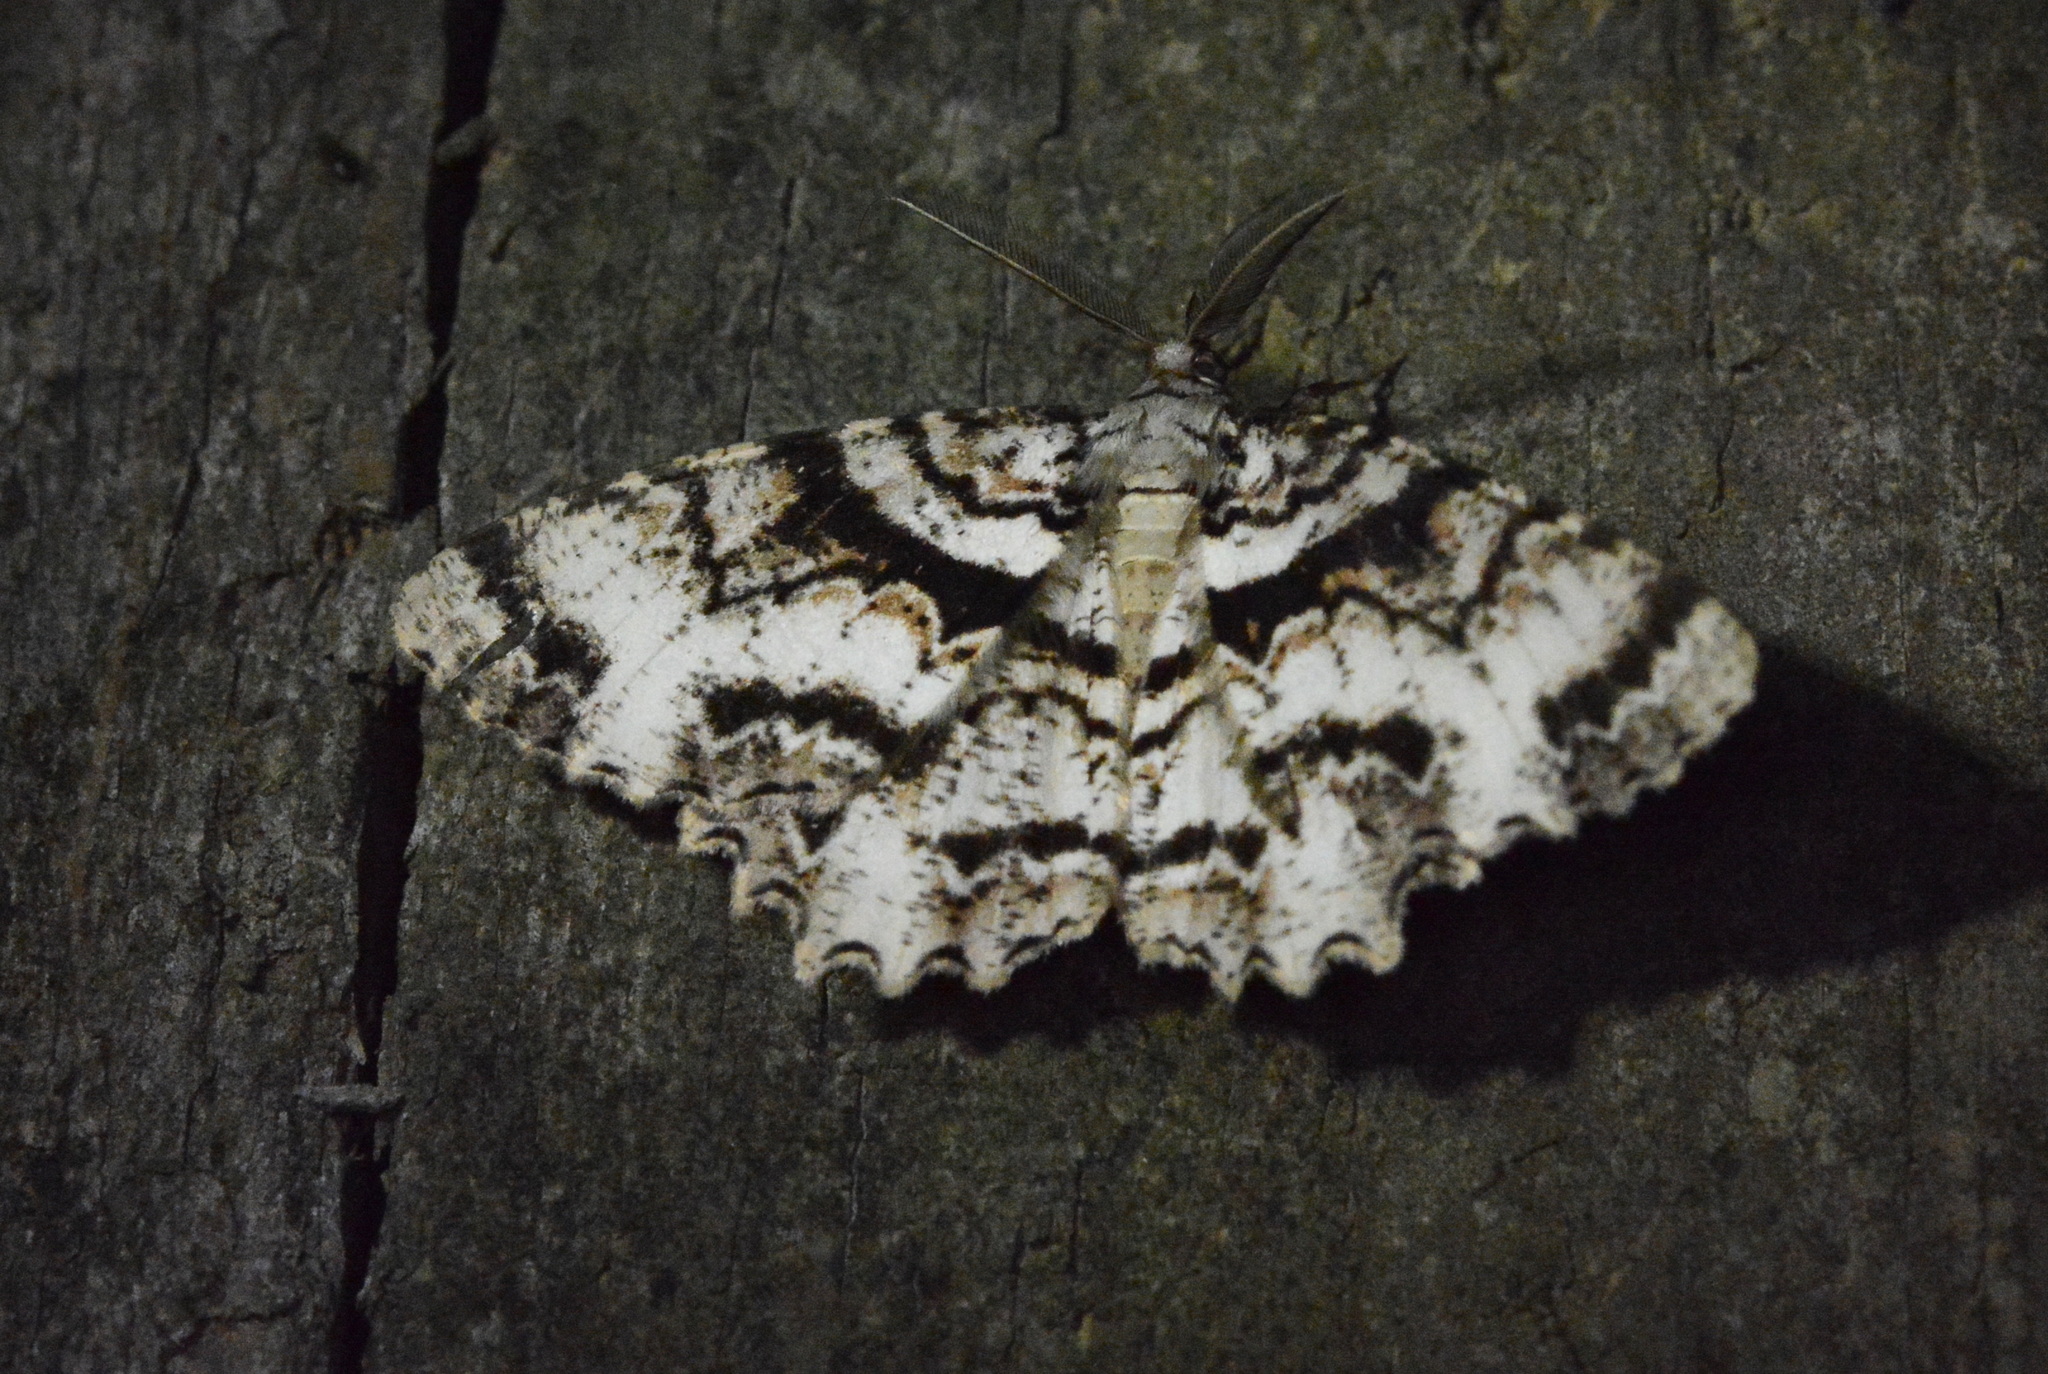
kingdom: Animalia
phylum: Arthropoda
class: Insecta
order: Lepidoptera
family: Geometridae
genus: Epimecis
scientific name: Epimecis hortaria
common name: Tulip-tree beauty
